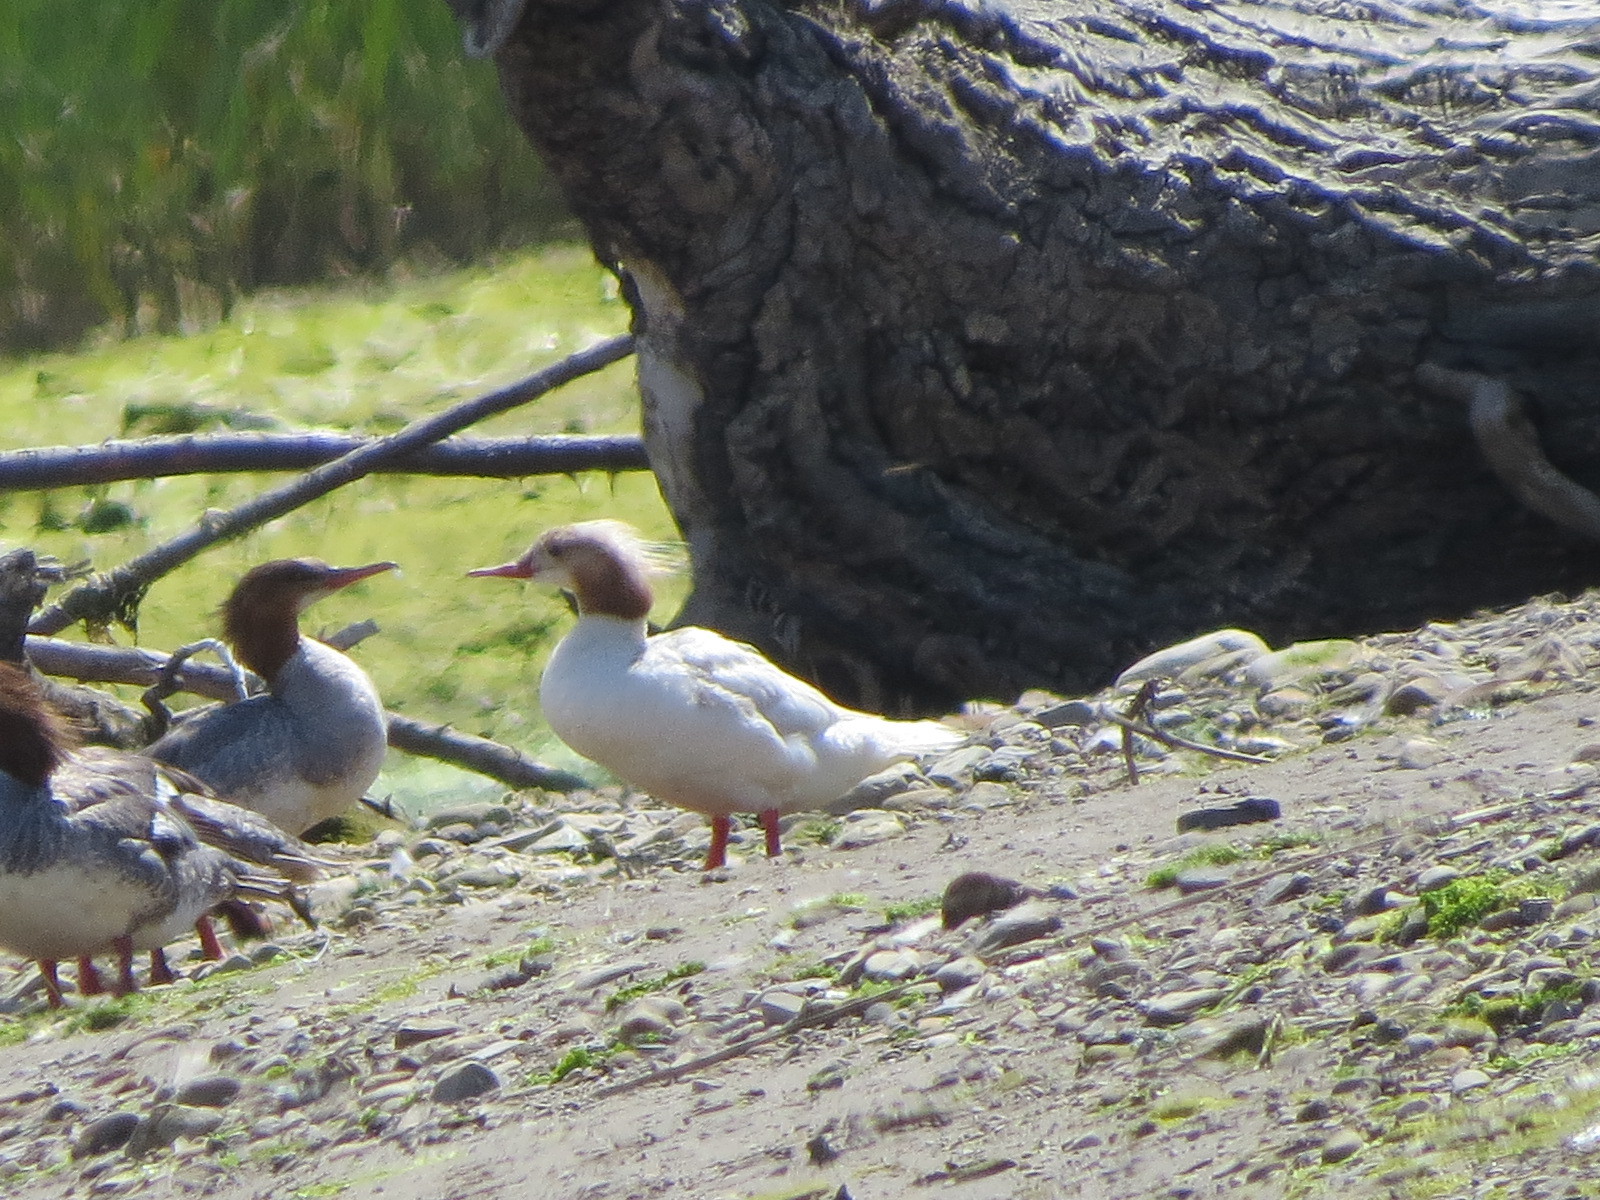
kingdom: Animalia
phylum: Chordata
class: Aves
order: Anseriformes
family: Anatidae
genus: Mergus
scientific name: Mergus merganser
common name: Common merganser
